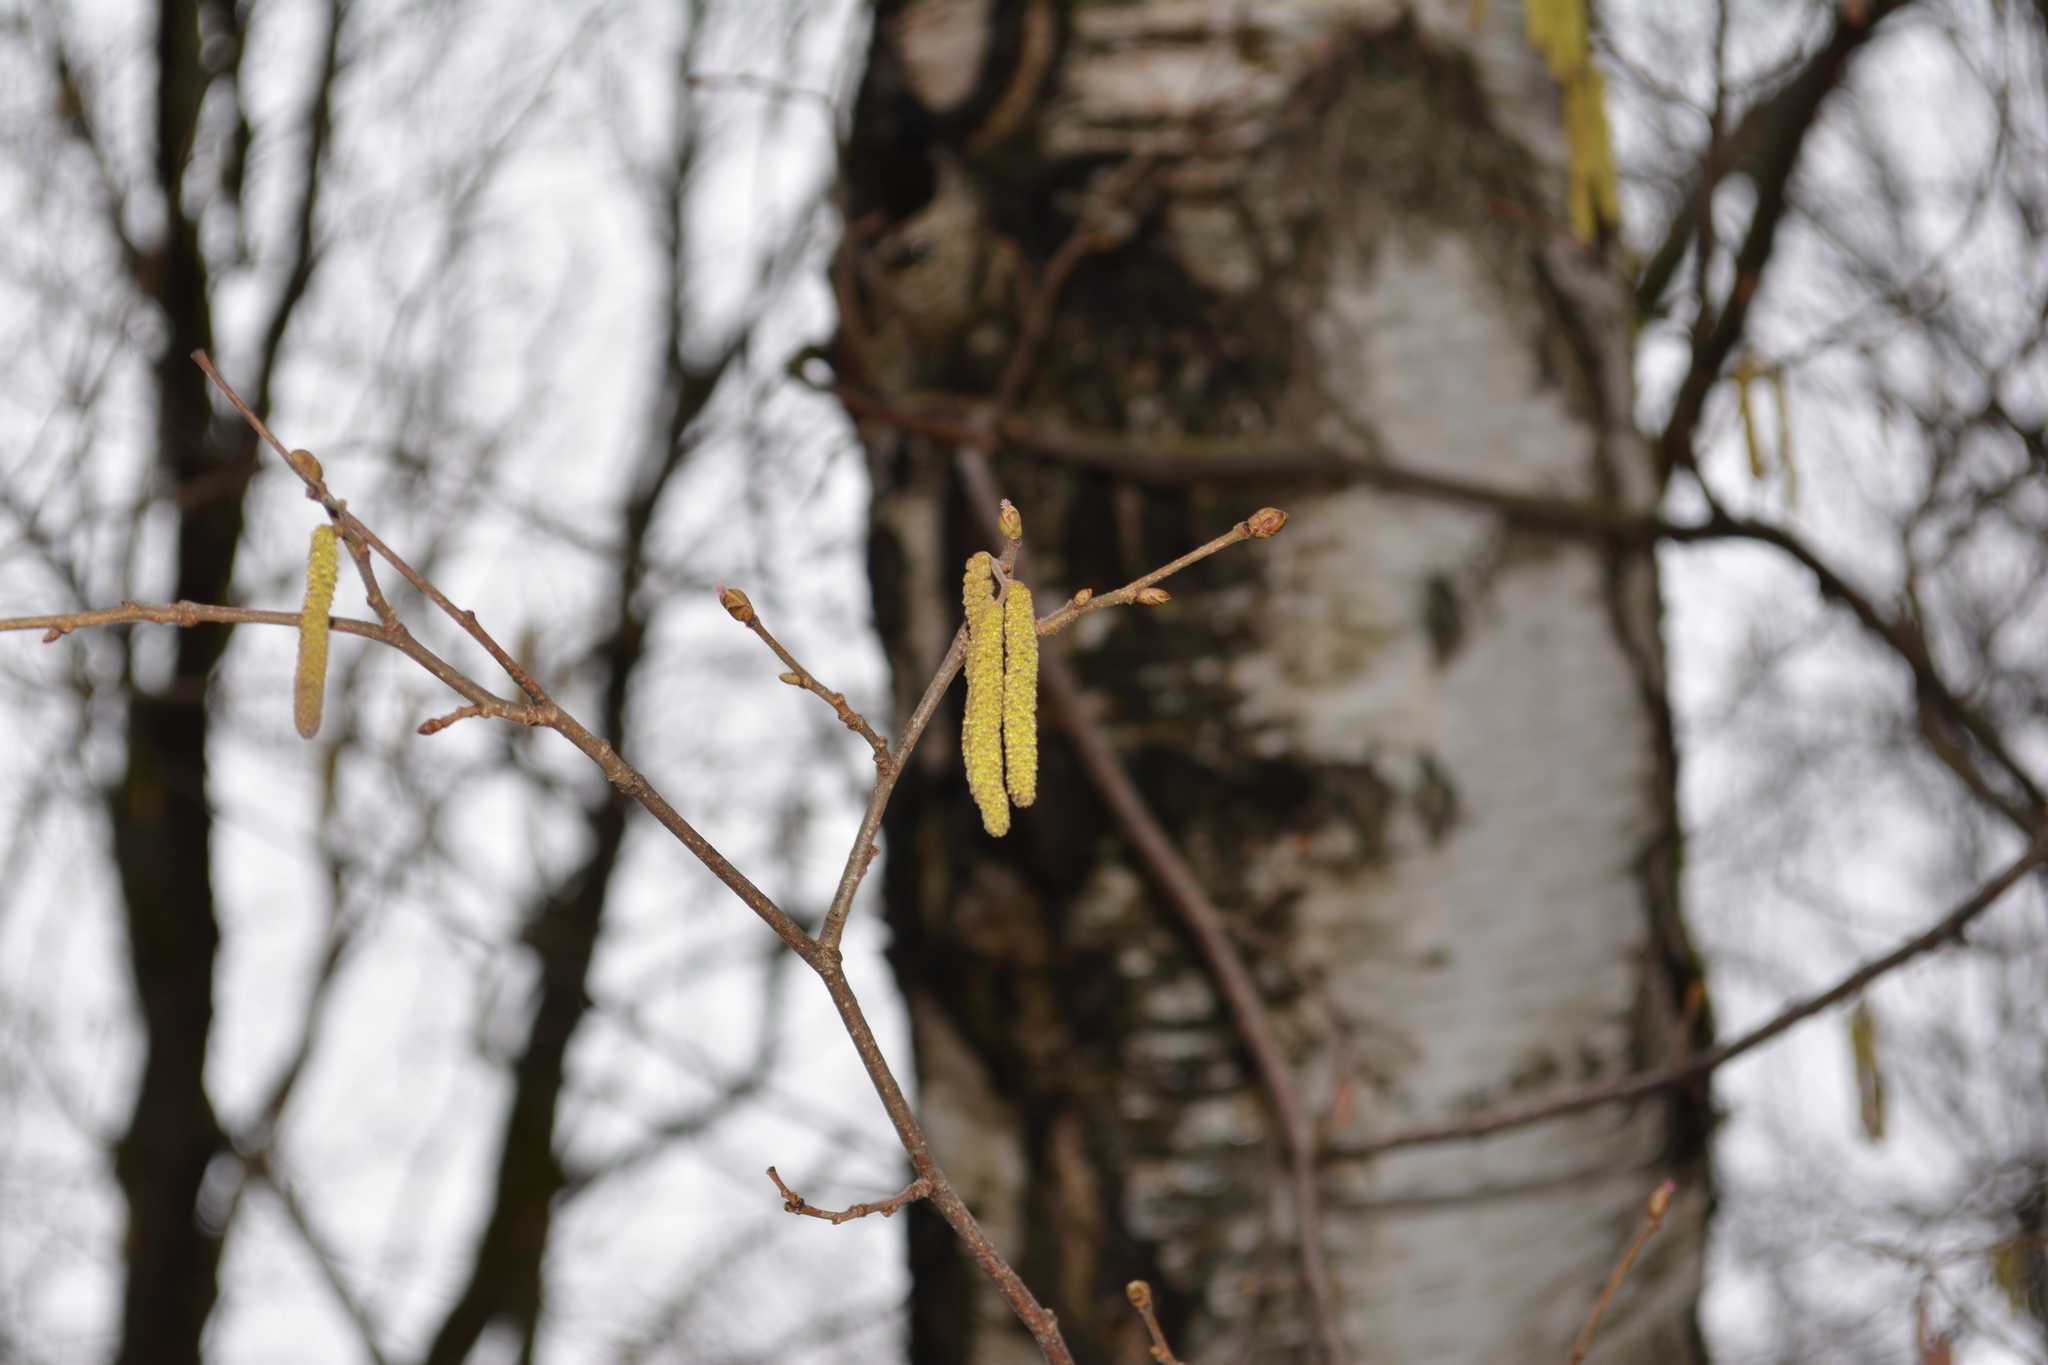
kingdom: Plantae
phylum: Tracheophyta
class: Magnoliopsida
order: Fagales
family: Betulaceae
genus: Corylus
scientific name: Corylus avellana
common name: European hazel
